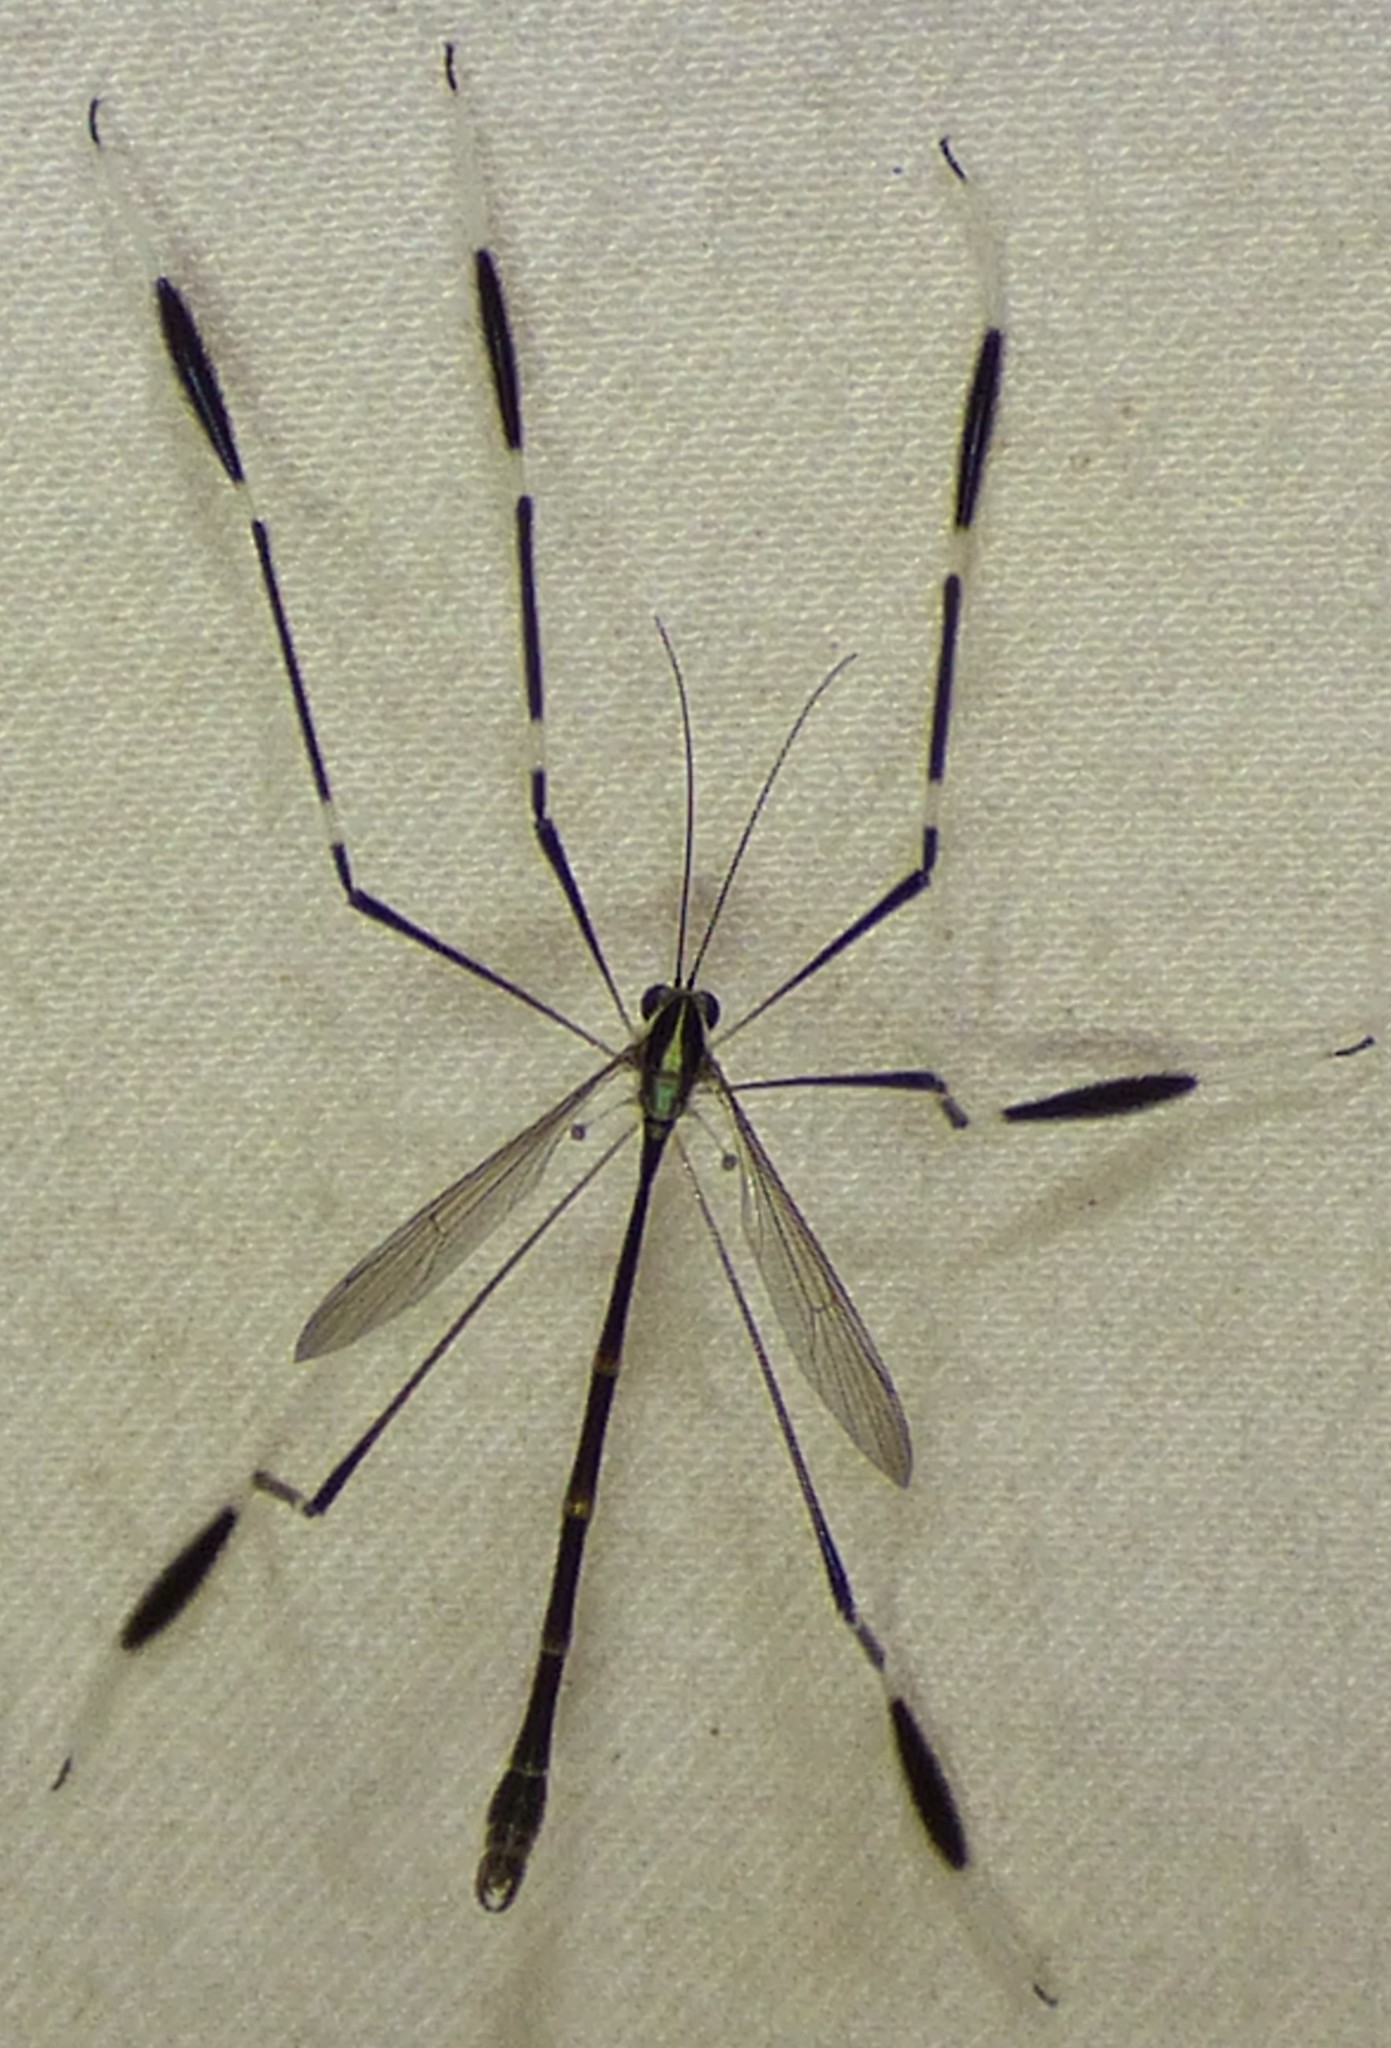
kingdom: Animalia
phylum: Arthropoda
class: Insecta
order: Diptera
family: Ptychopteridae
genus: Bittacomorpha
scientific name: Bittacomorpha clavipes
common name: Eastern phantom crane fly
